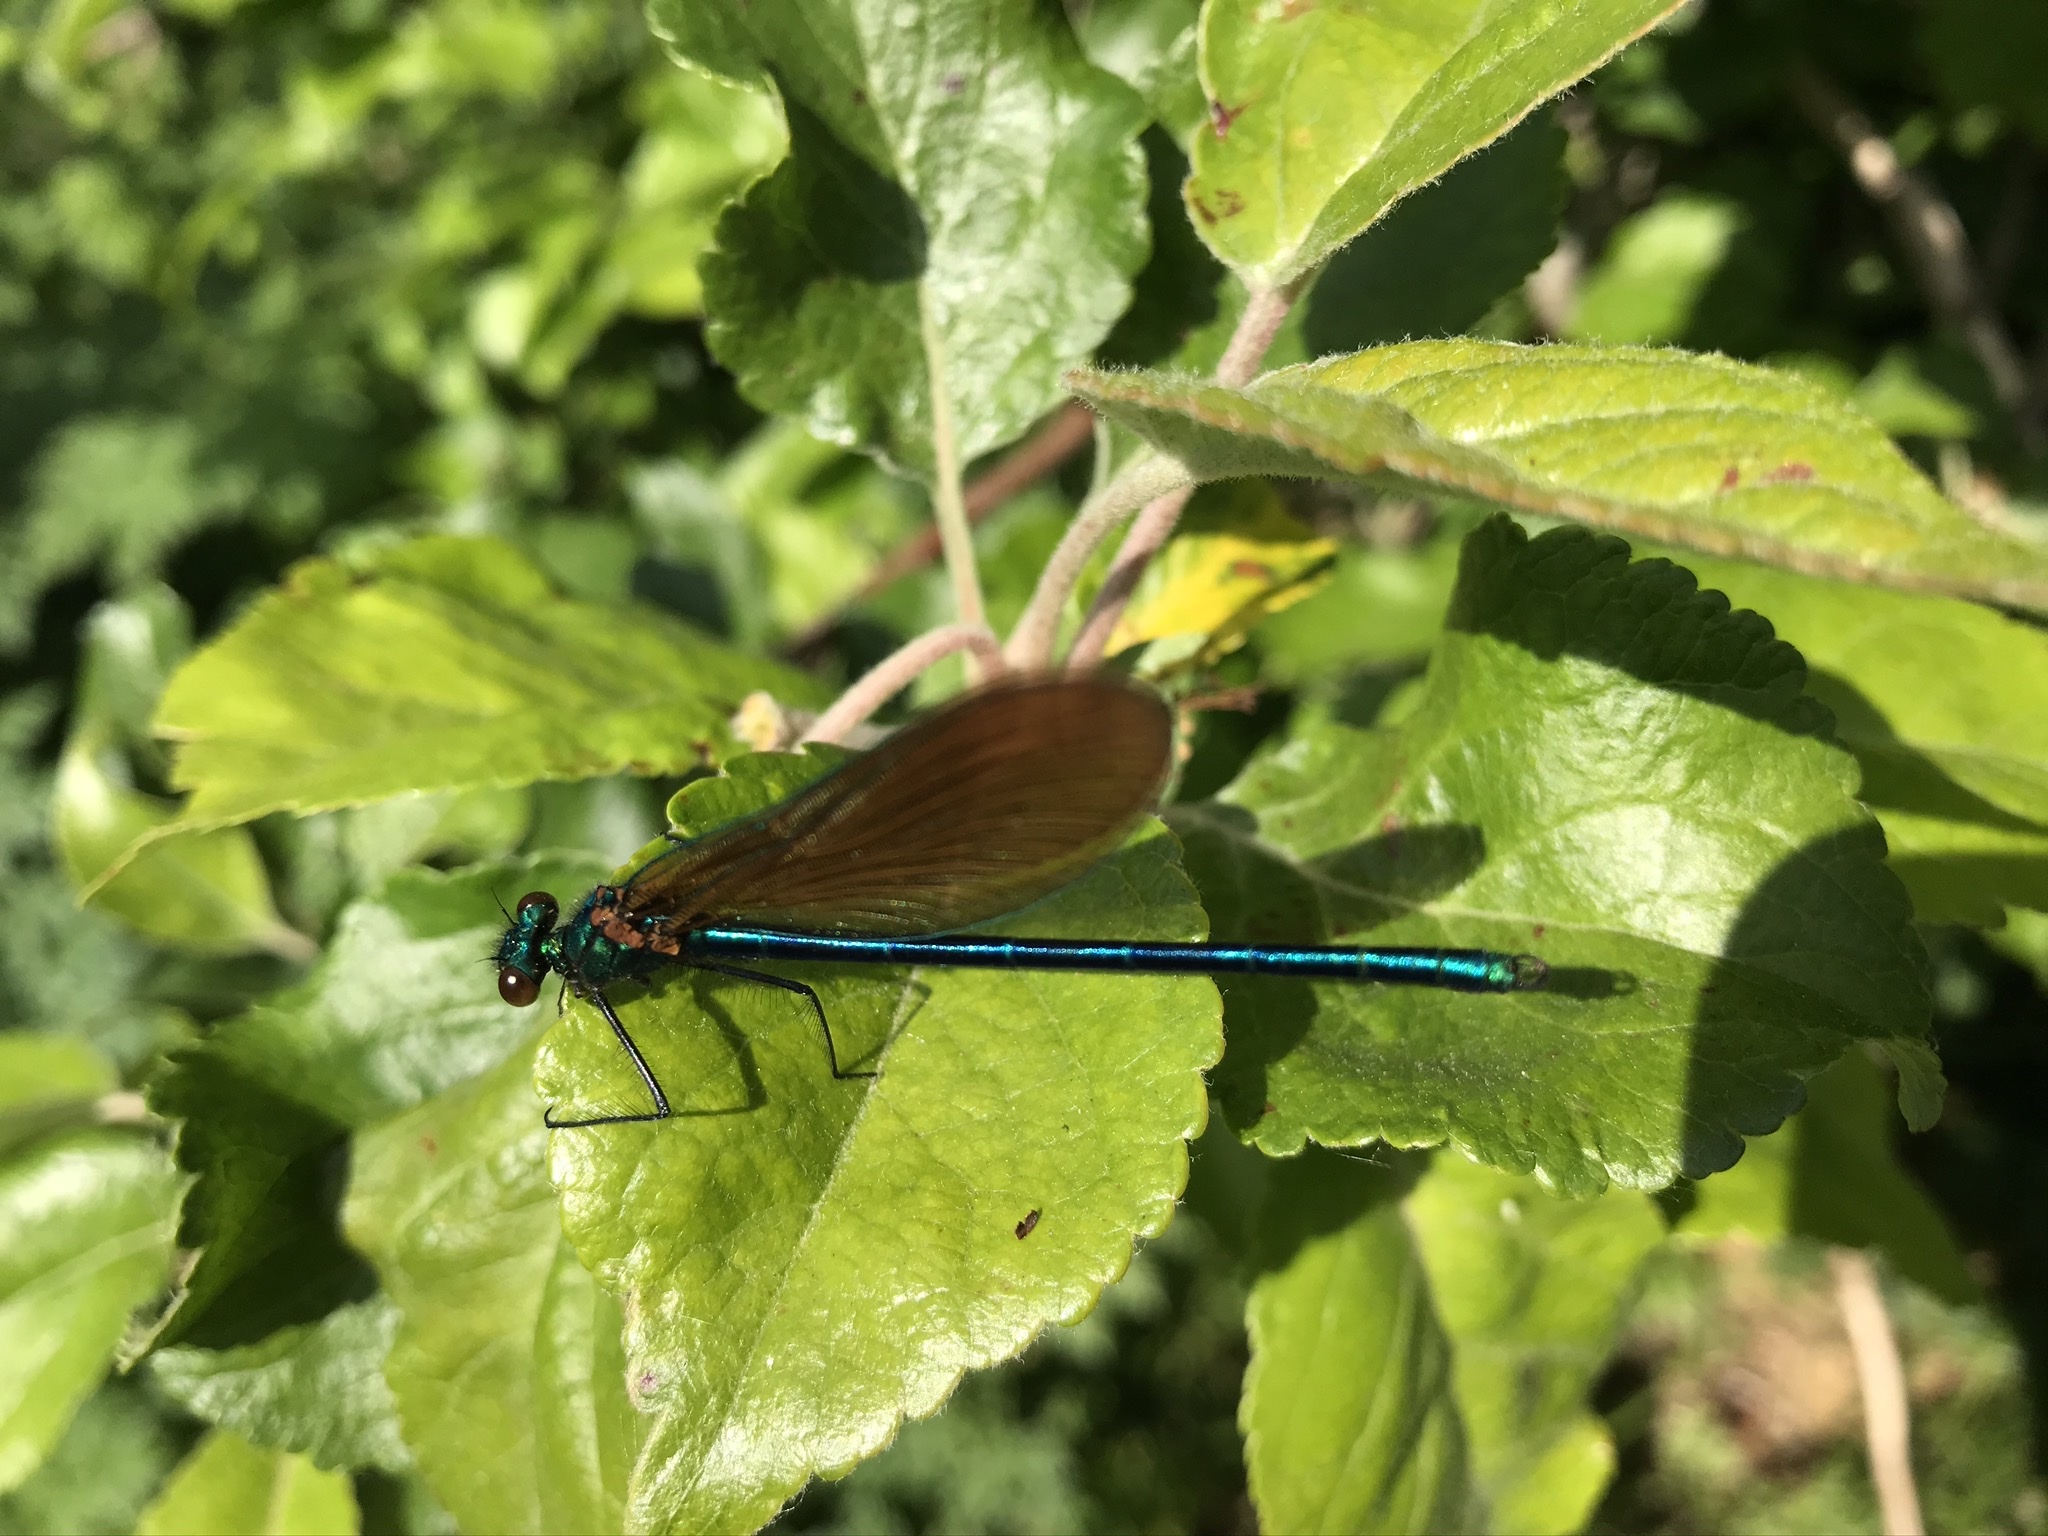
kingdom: Animalia
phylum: Arthropoda
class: Insecta
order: Odonata
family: Calopterygidae
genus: Calopteryx
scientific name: Calopteryx virgo
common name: Beautiful demoiselle
